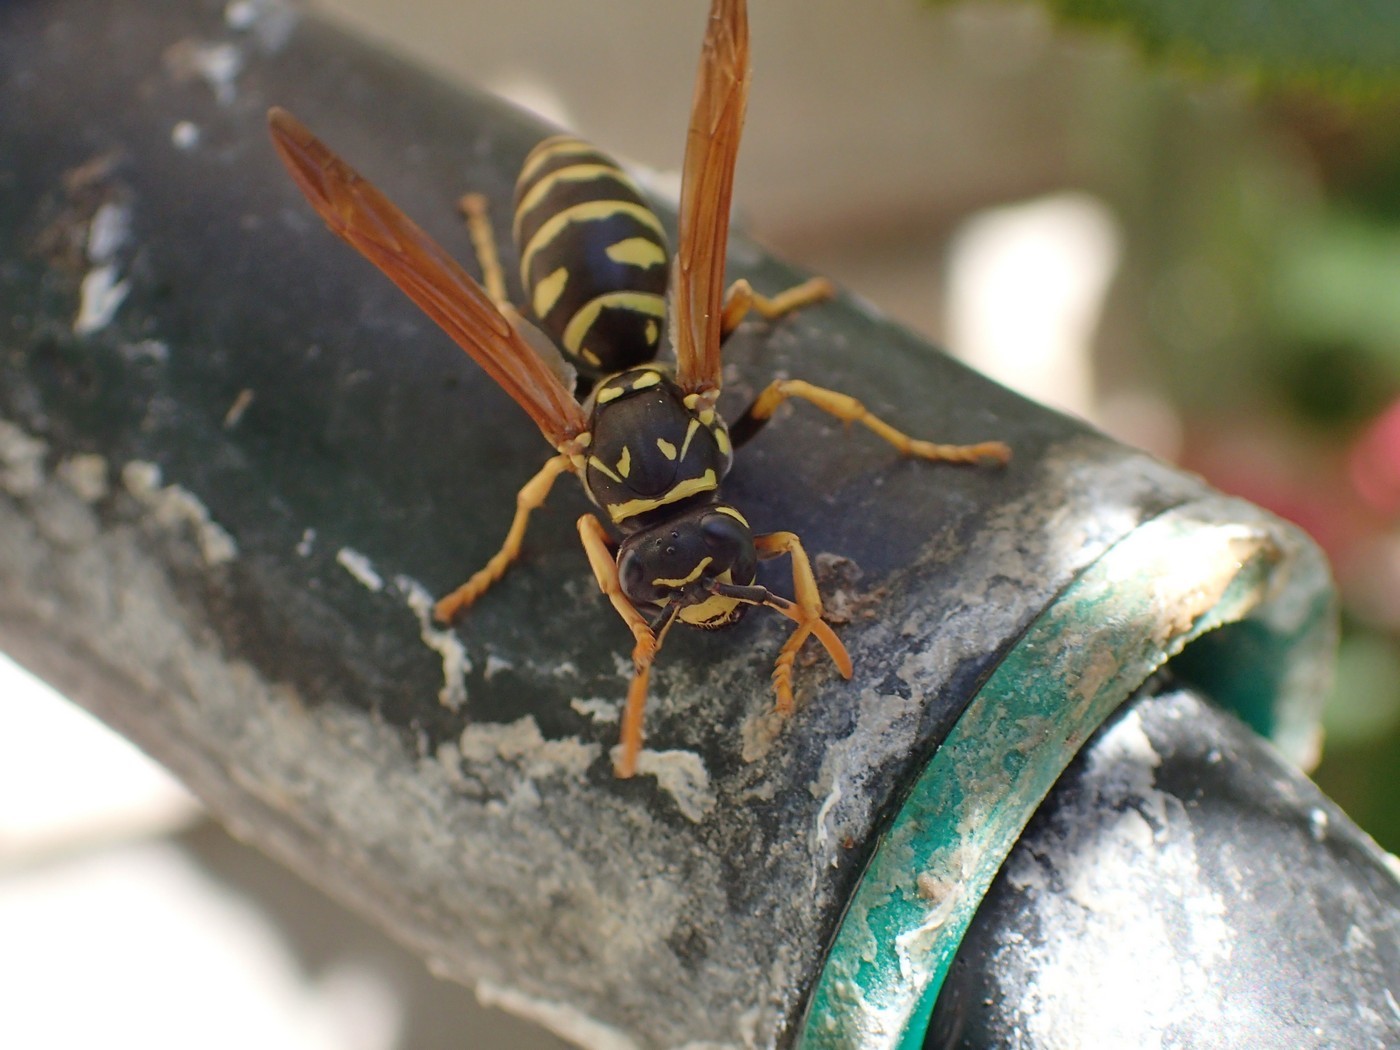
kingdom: Animalia
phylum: Arthropoda
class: Insecta
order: Hymenoptera
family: Eumenidae
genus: Polistes
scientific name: Polistes dominula
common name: Paper wasp
